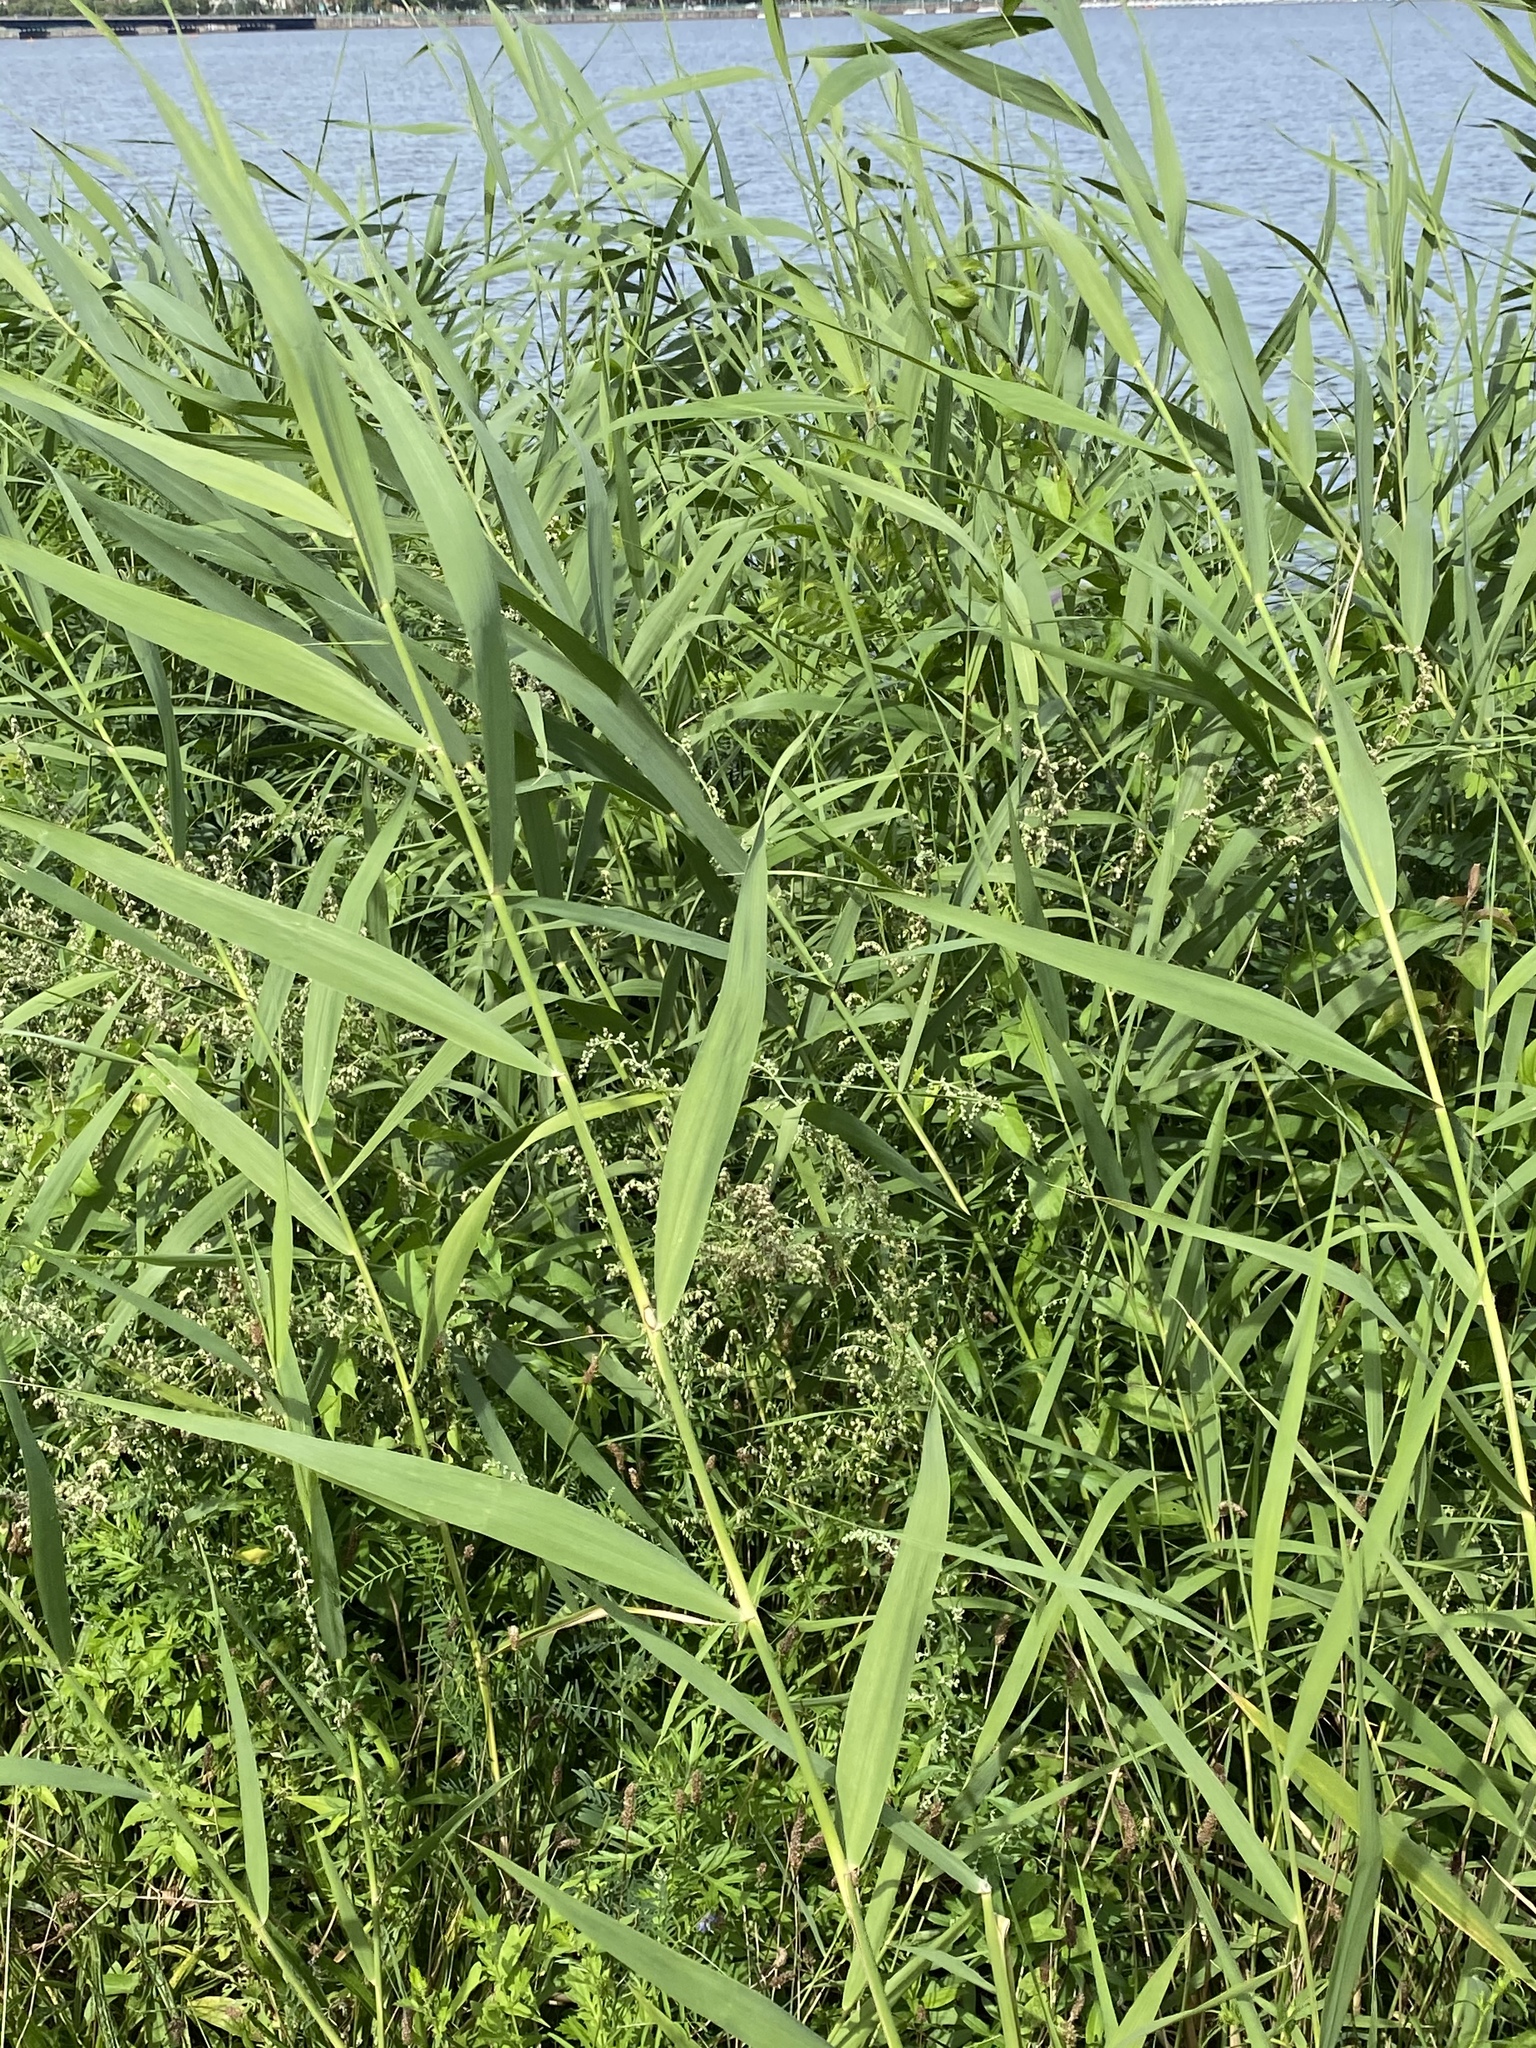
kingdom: Plantae
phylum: Tracheophyta
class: Liliopsida
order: Poales
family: Poaceae
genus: Phragmites
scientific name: Phragmites australis
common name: Common reed
